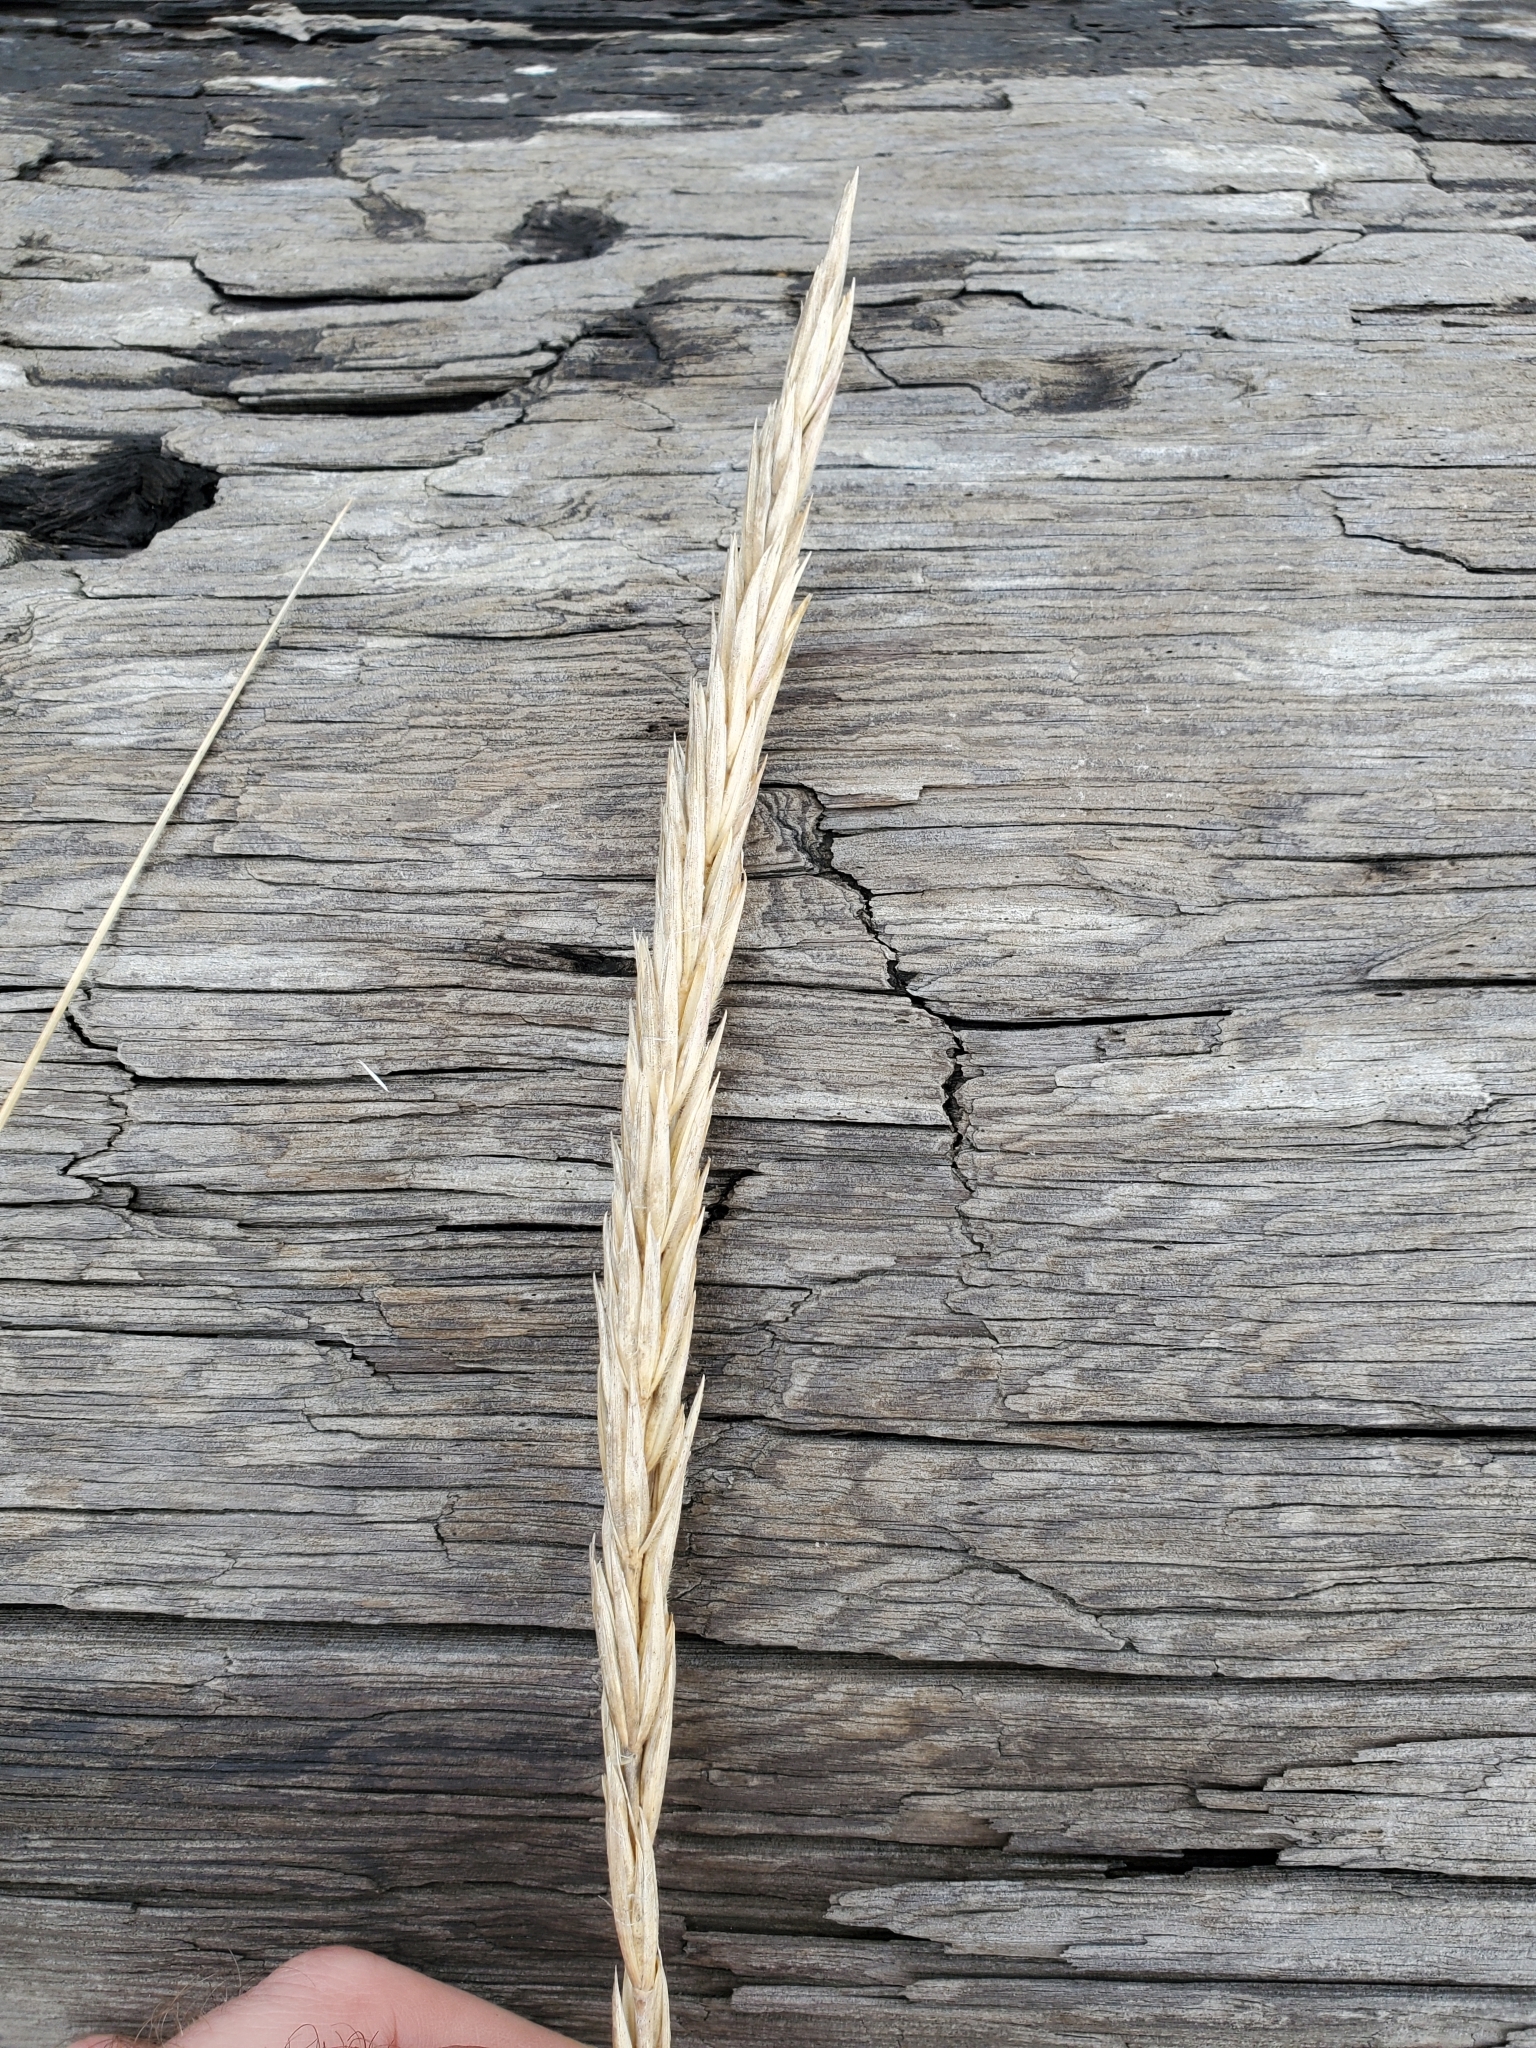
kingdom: Plantae
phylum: Tracheophyta
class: Liliopsida
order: Poales
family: Poaceae
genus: Leymus
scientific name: Leymus mollis
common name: American dune grass
